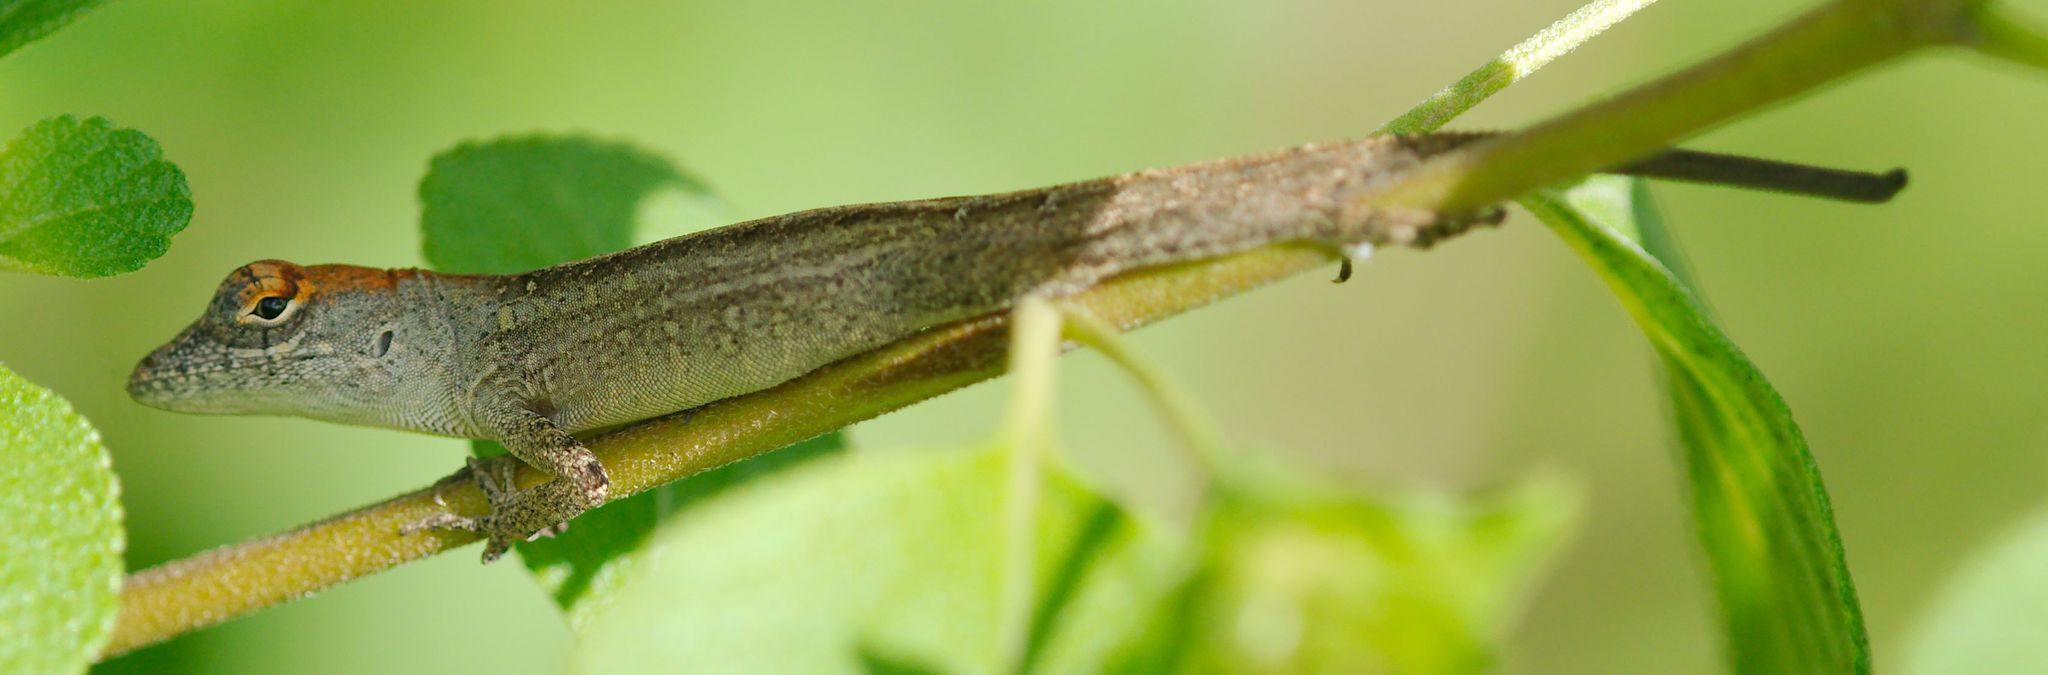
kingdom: Animalia
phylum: Chordata
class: Squamata
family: Dactyloidae
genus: Anolis
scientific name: Anolis sagrei
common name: Brown anole
